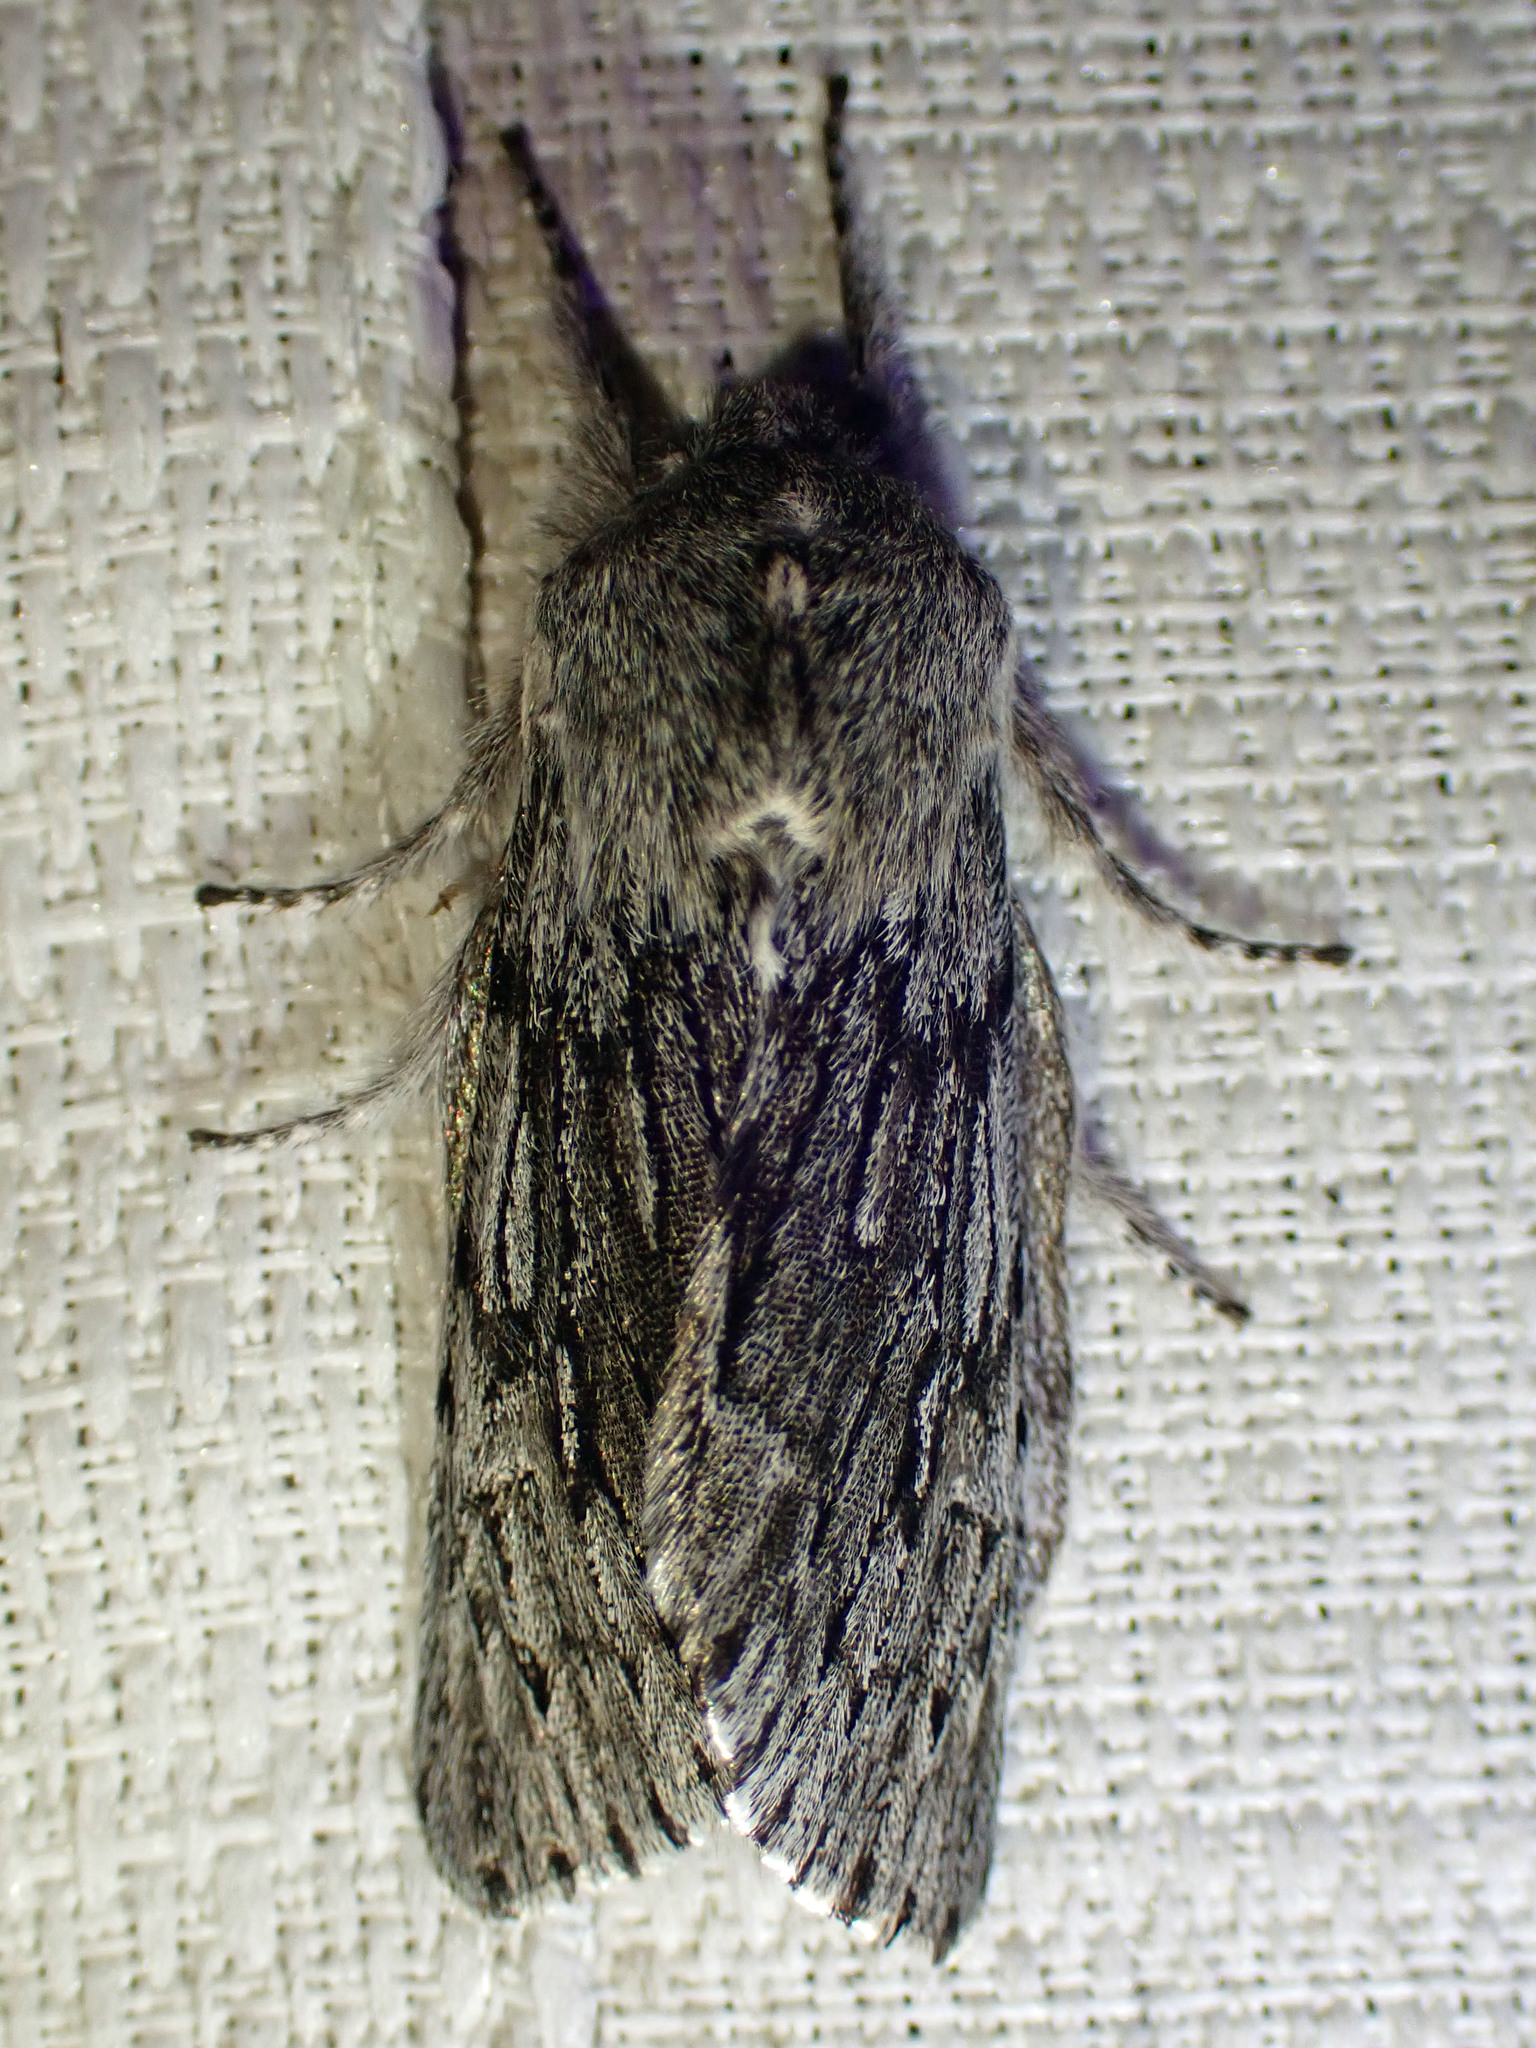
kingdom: Animalia
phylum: Arthropoda
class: Insecta
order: Lepidoptera
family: Noctuidae
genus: Brachionycha
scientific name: Brachionycha borealis
